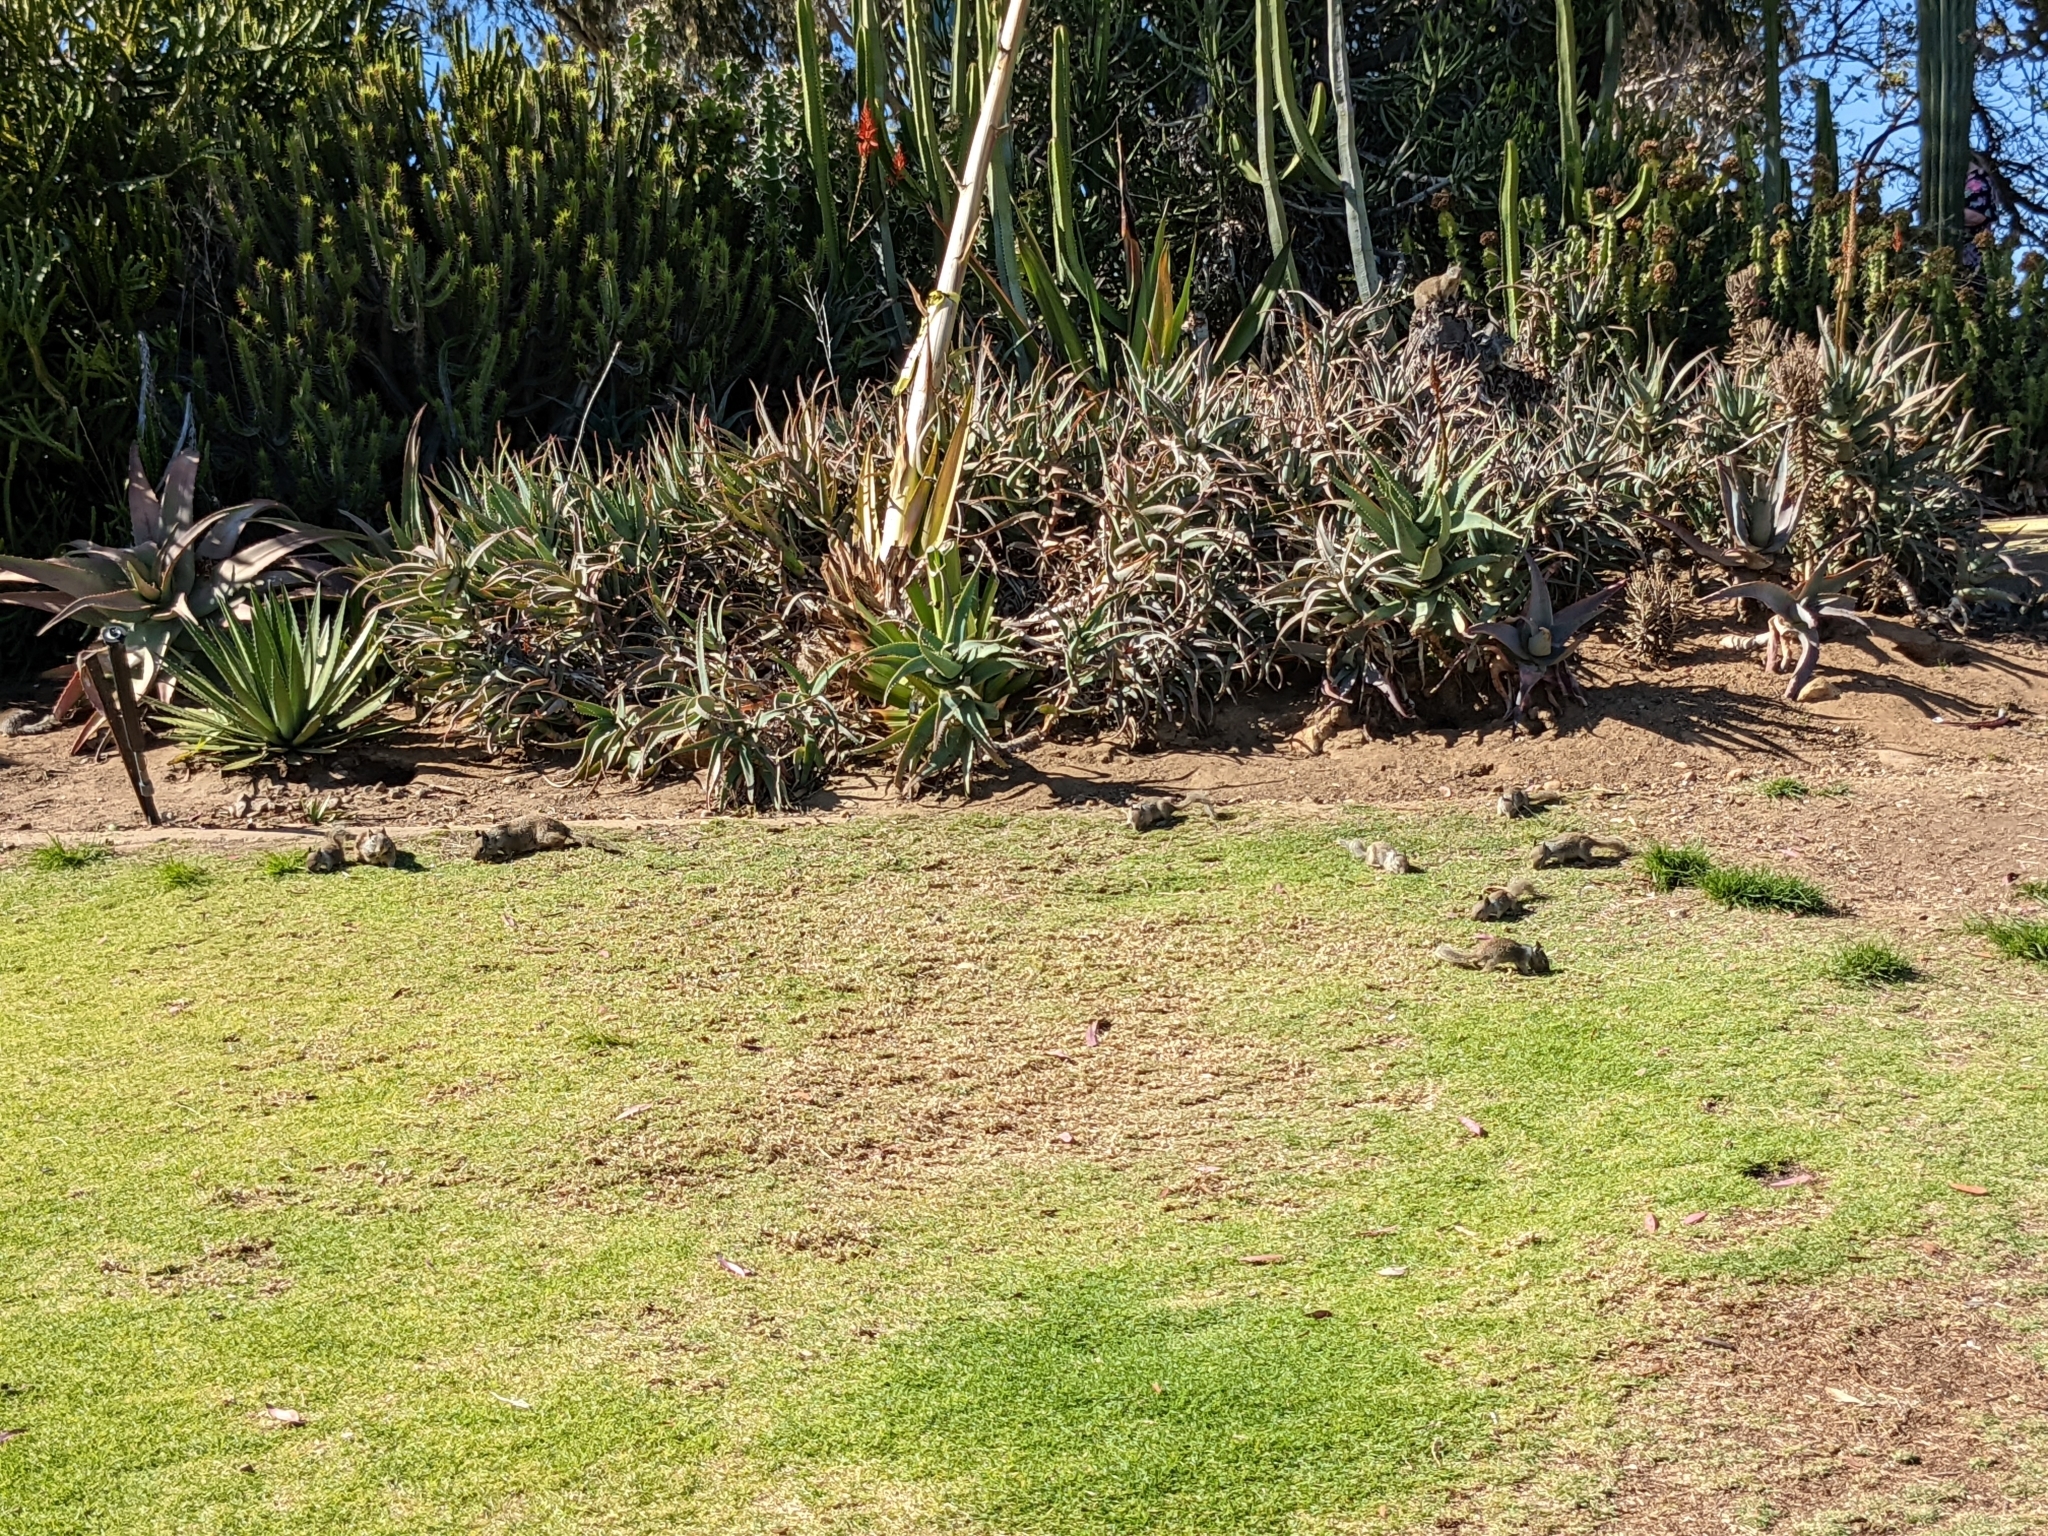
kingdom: Animalia
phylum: Chordata
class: Mammalia
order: Rodentia
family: Sciuridae
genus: Otospermophilus
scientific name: Otospermophilus beecheyi
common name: California ground squirrel
